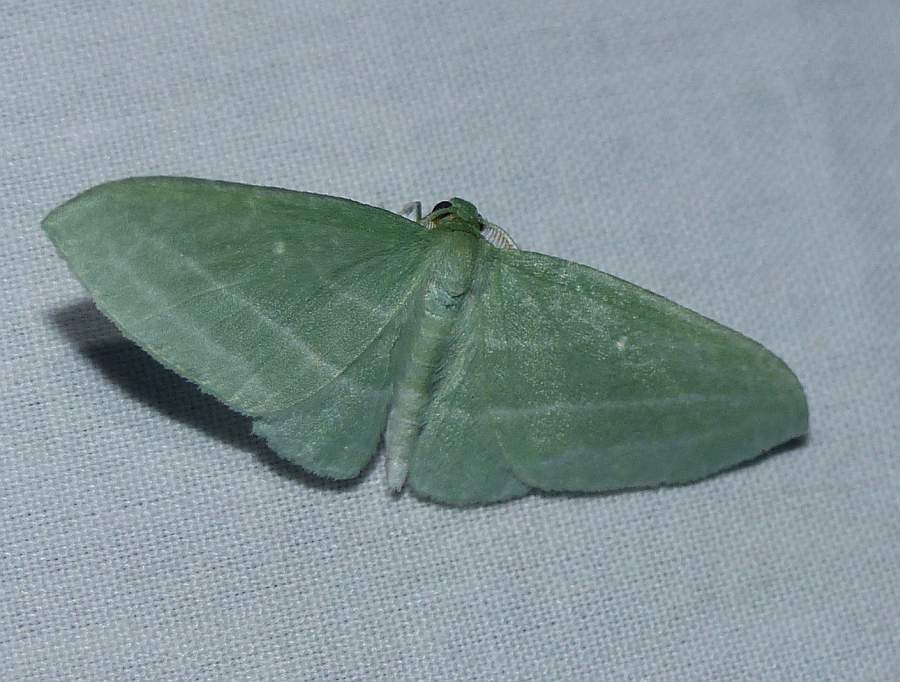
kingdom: Animalia
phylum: Arthropoda
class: Insecta
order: Lepidoptera
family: Geometridae
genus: Dyspteris
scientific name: Dyspteris abortivaria
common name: Bad-wing
